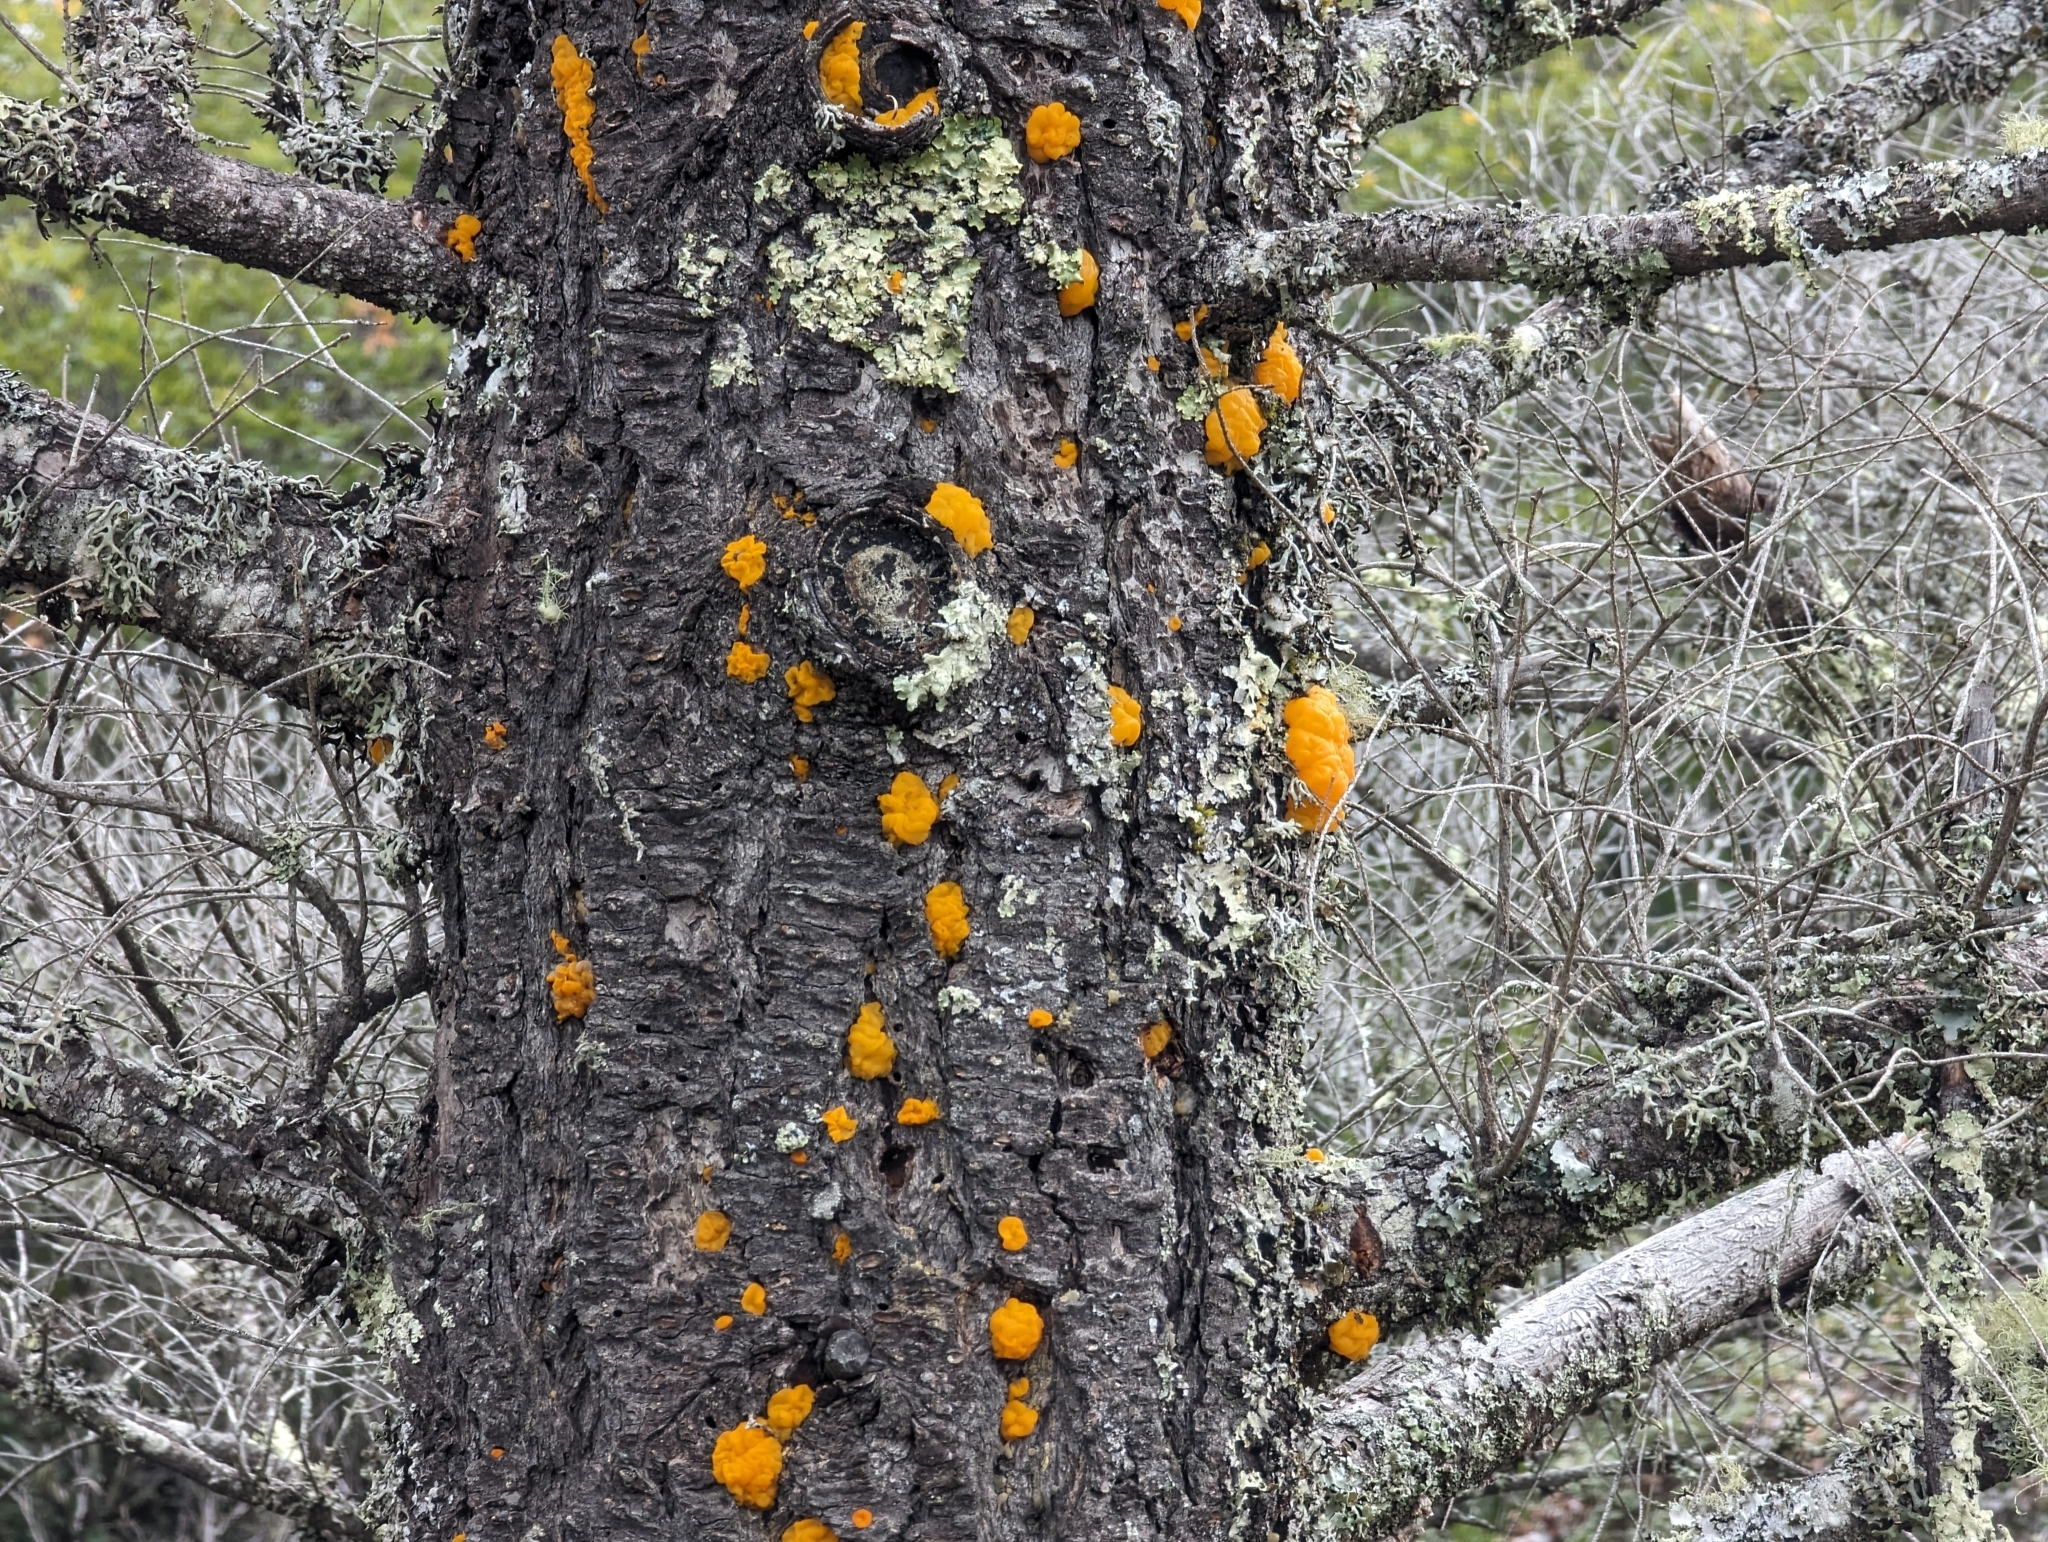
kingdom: Fungi
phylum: Basidiomycota
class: Dacrymycetes
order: Dacrymycetales
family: Dacrymycetaceae
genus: Dacrymyces
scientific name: Dacrymyces chrysospermus
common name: Orange jelly spot
